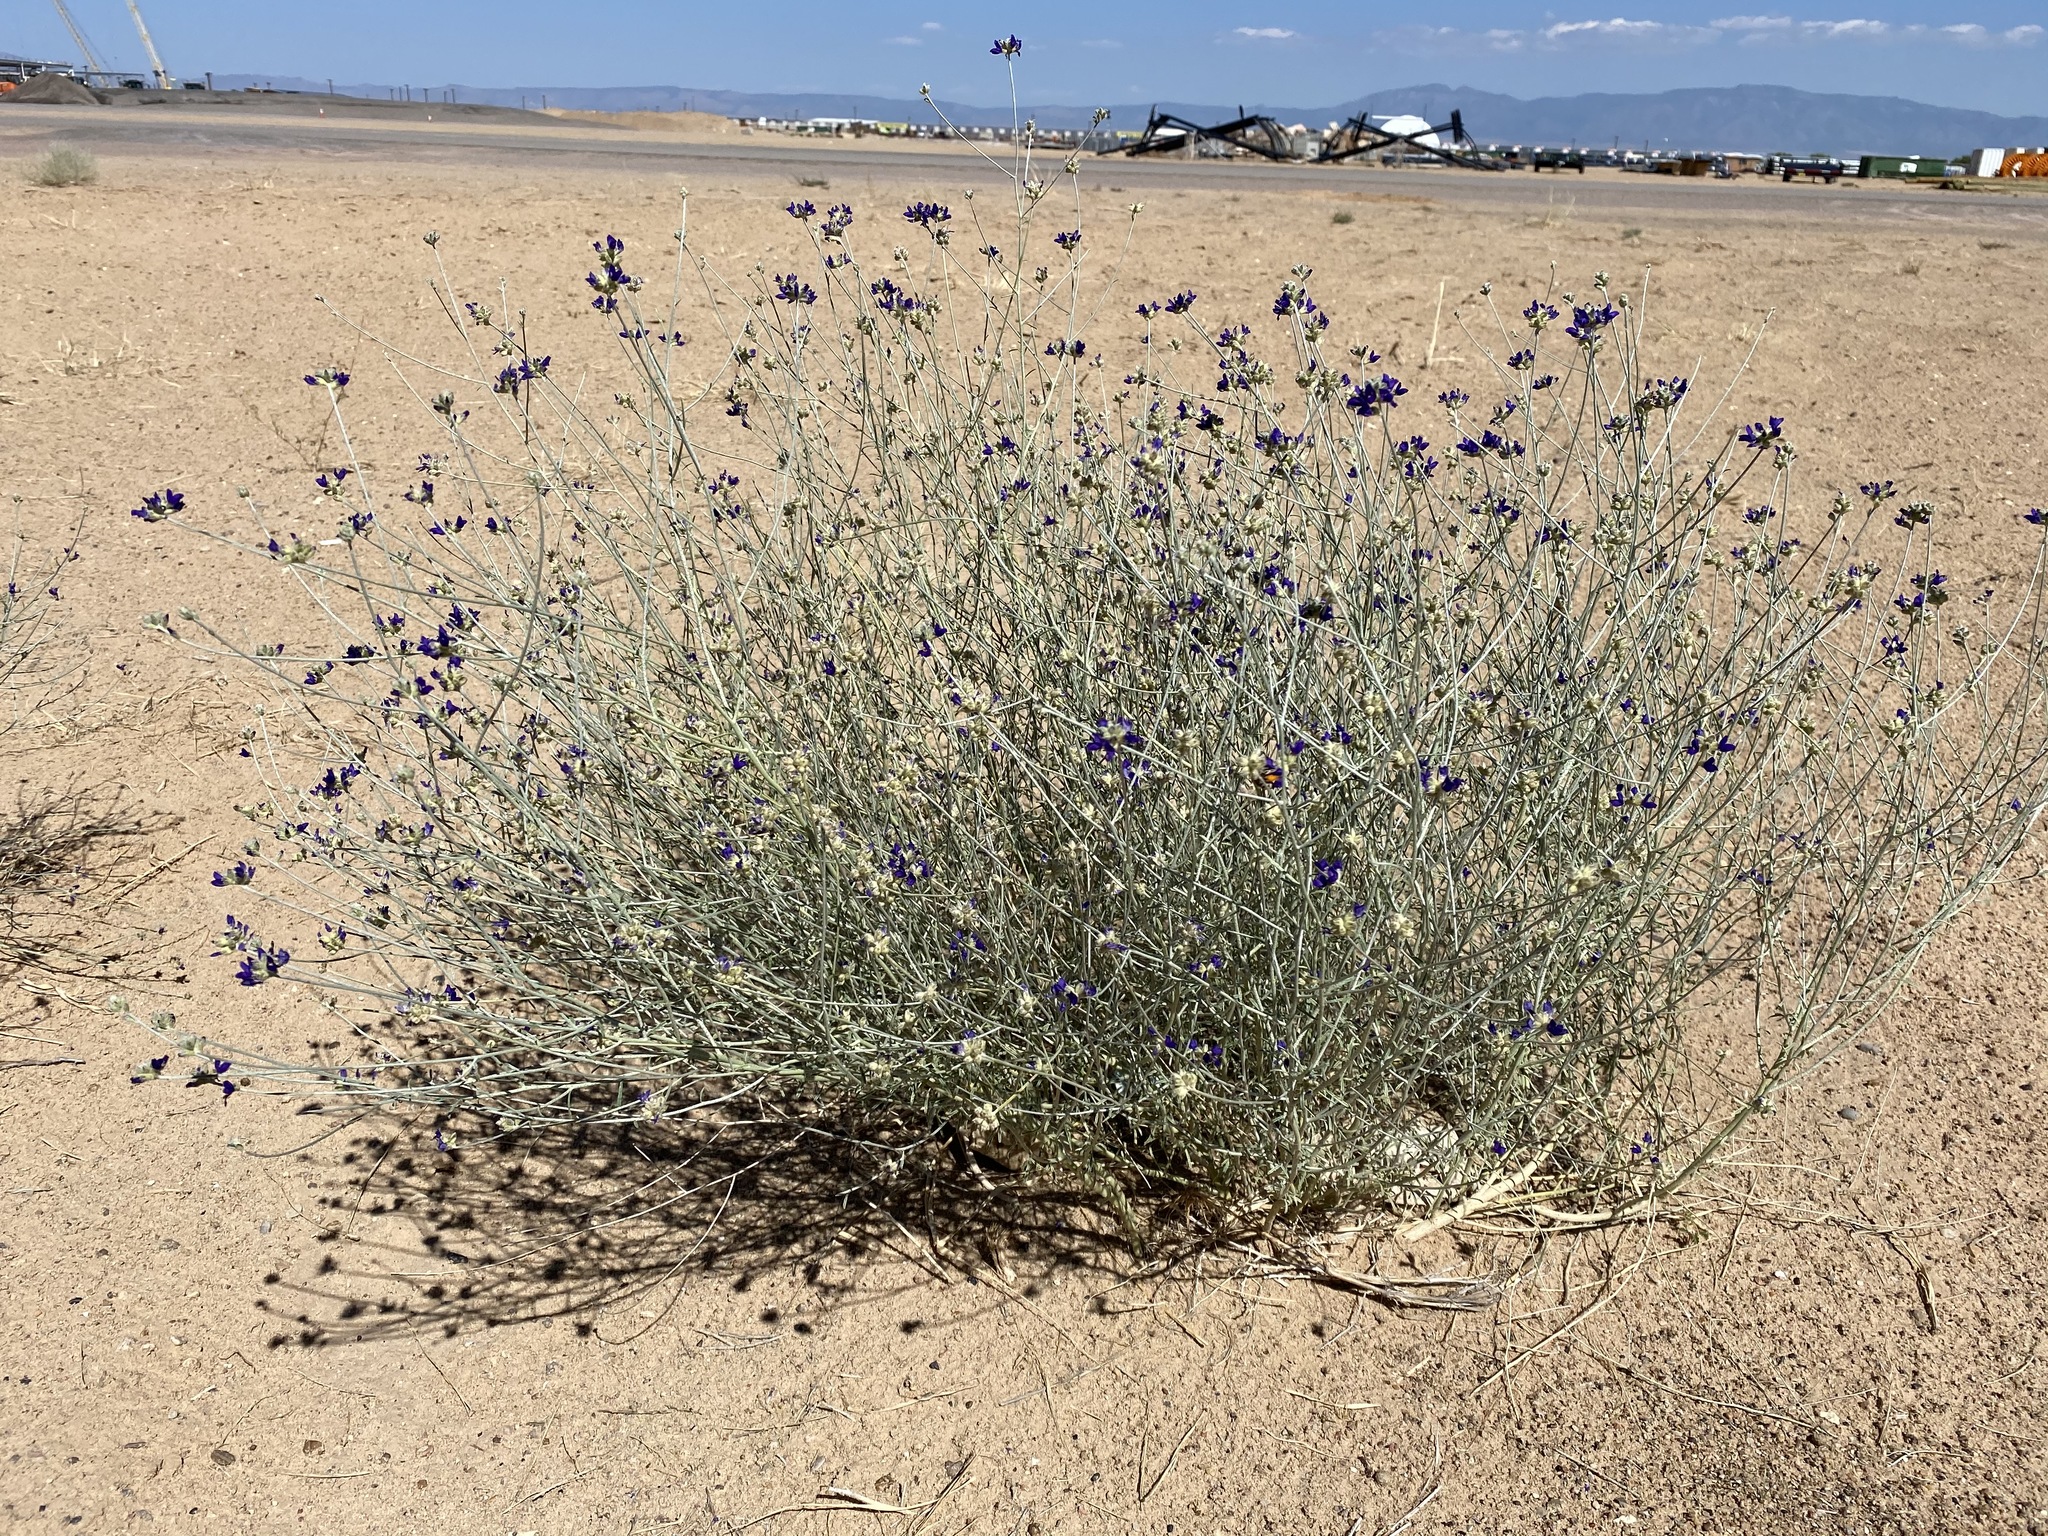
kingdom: Plantae
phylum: Tracheophyta
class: Magnoliopsida
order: Fabales
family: Fabaceae
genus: Psorothamnus
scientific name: Psorothamnus scoparius
